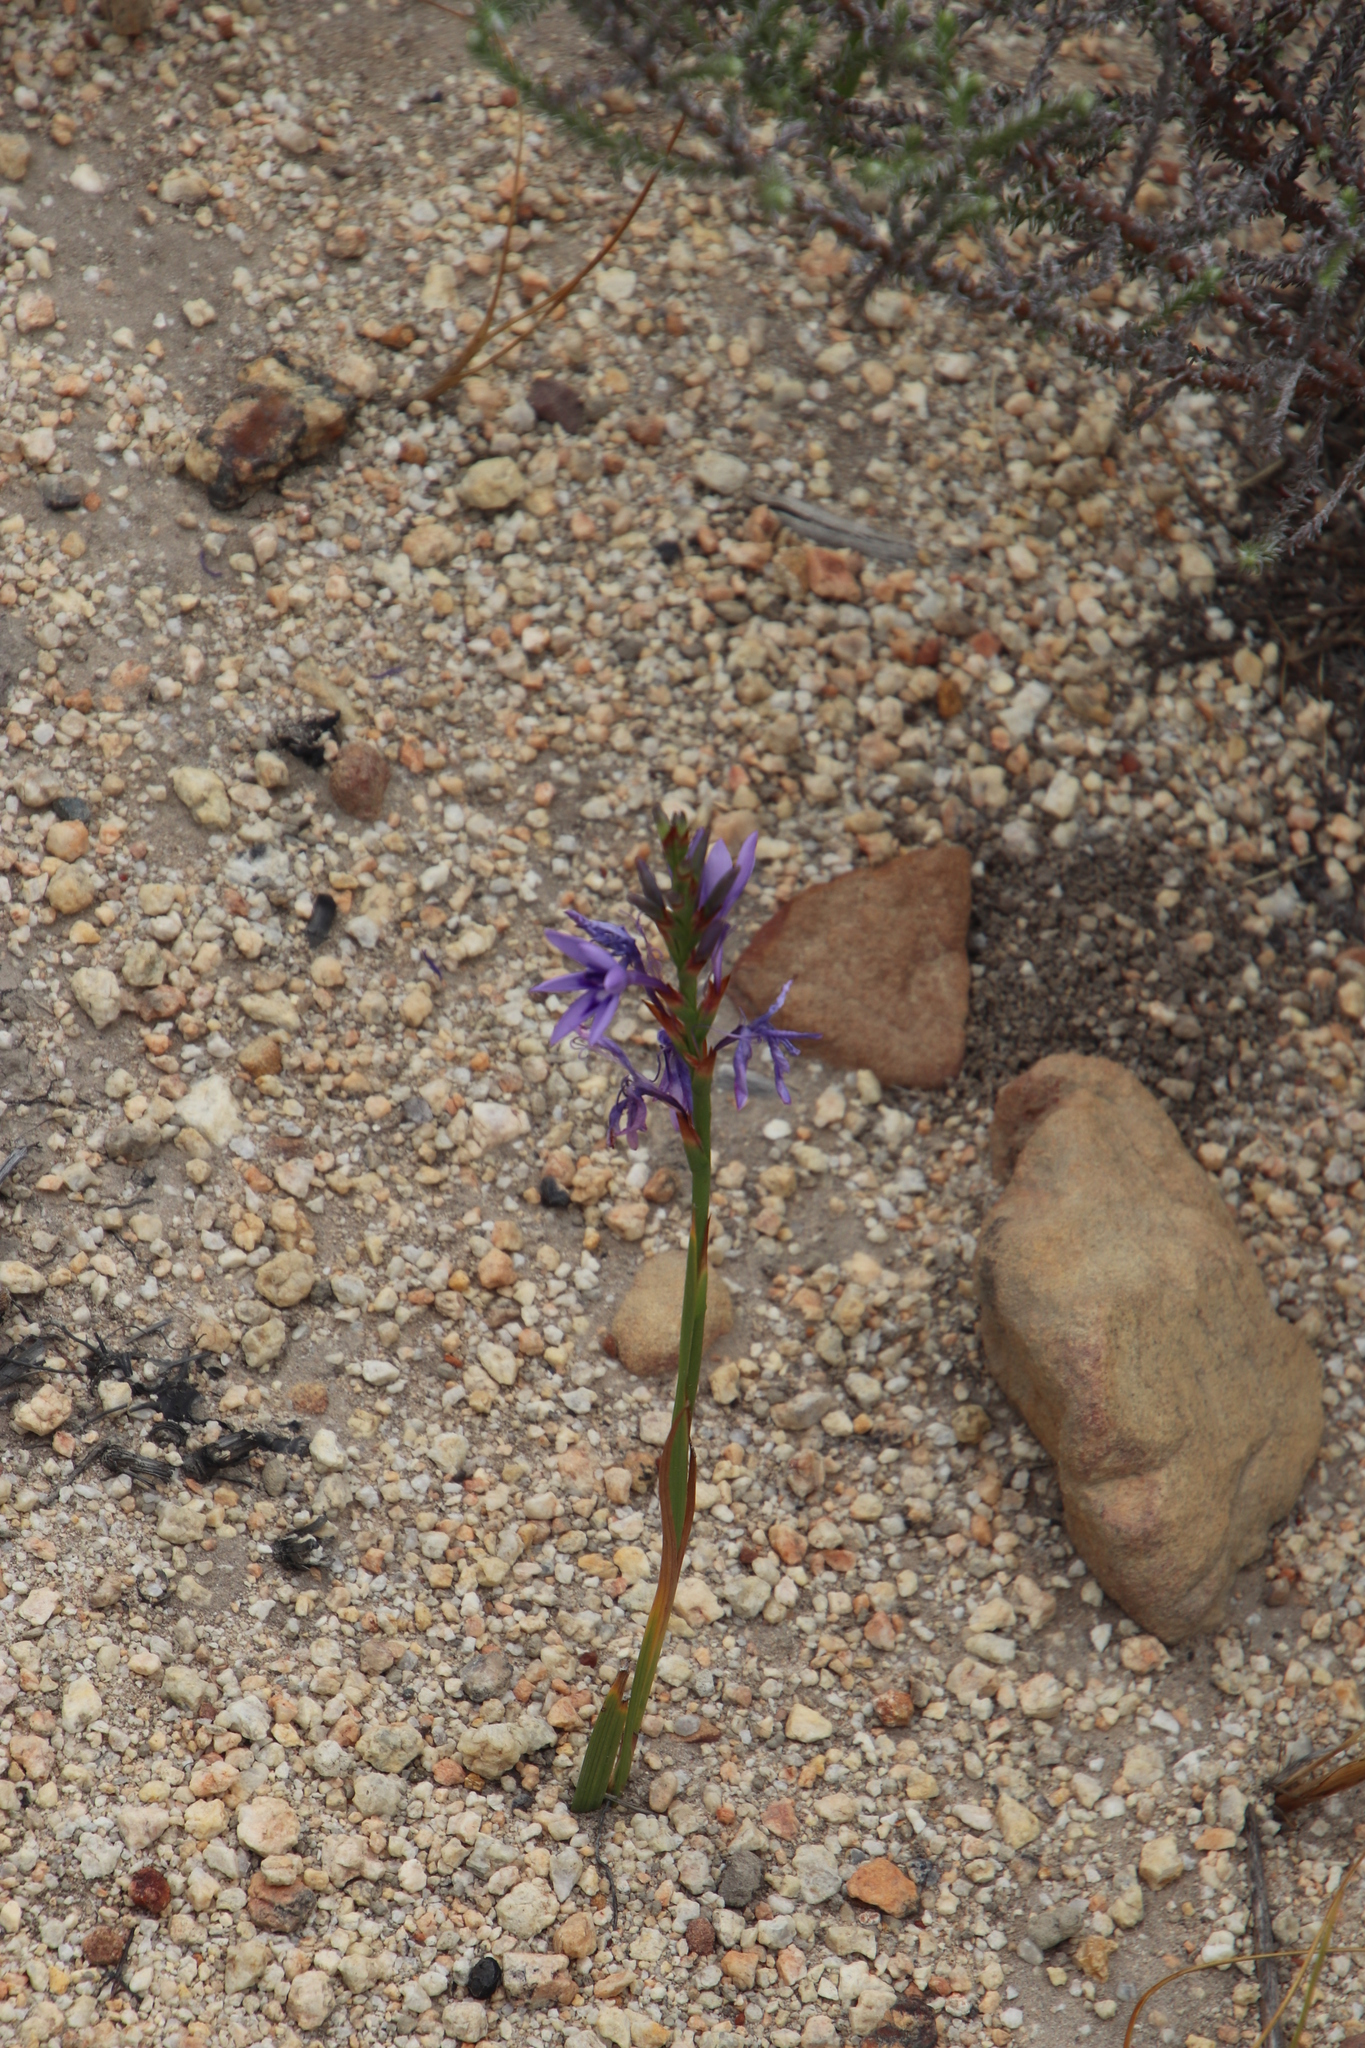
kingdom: Plantae
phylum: Tracheophyta
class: Liliopsida
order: Asparagales
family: Iridaceae
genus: Thereianthus
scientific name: Thereianthus spicatus
